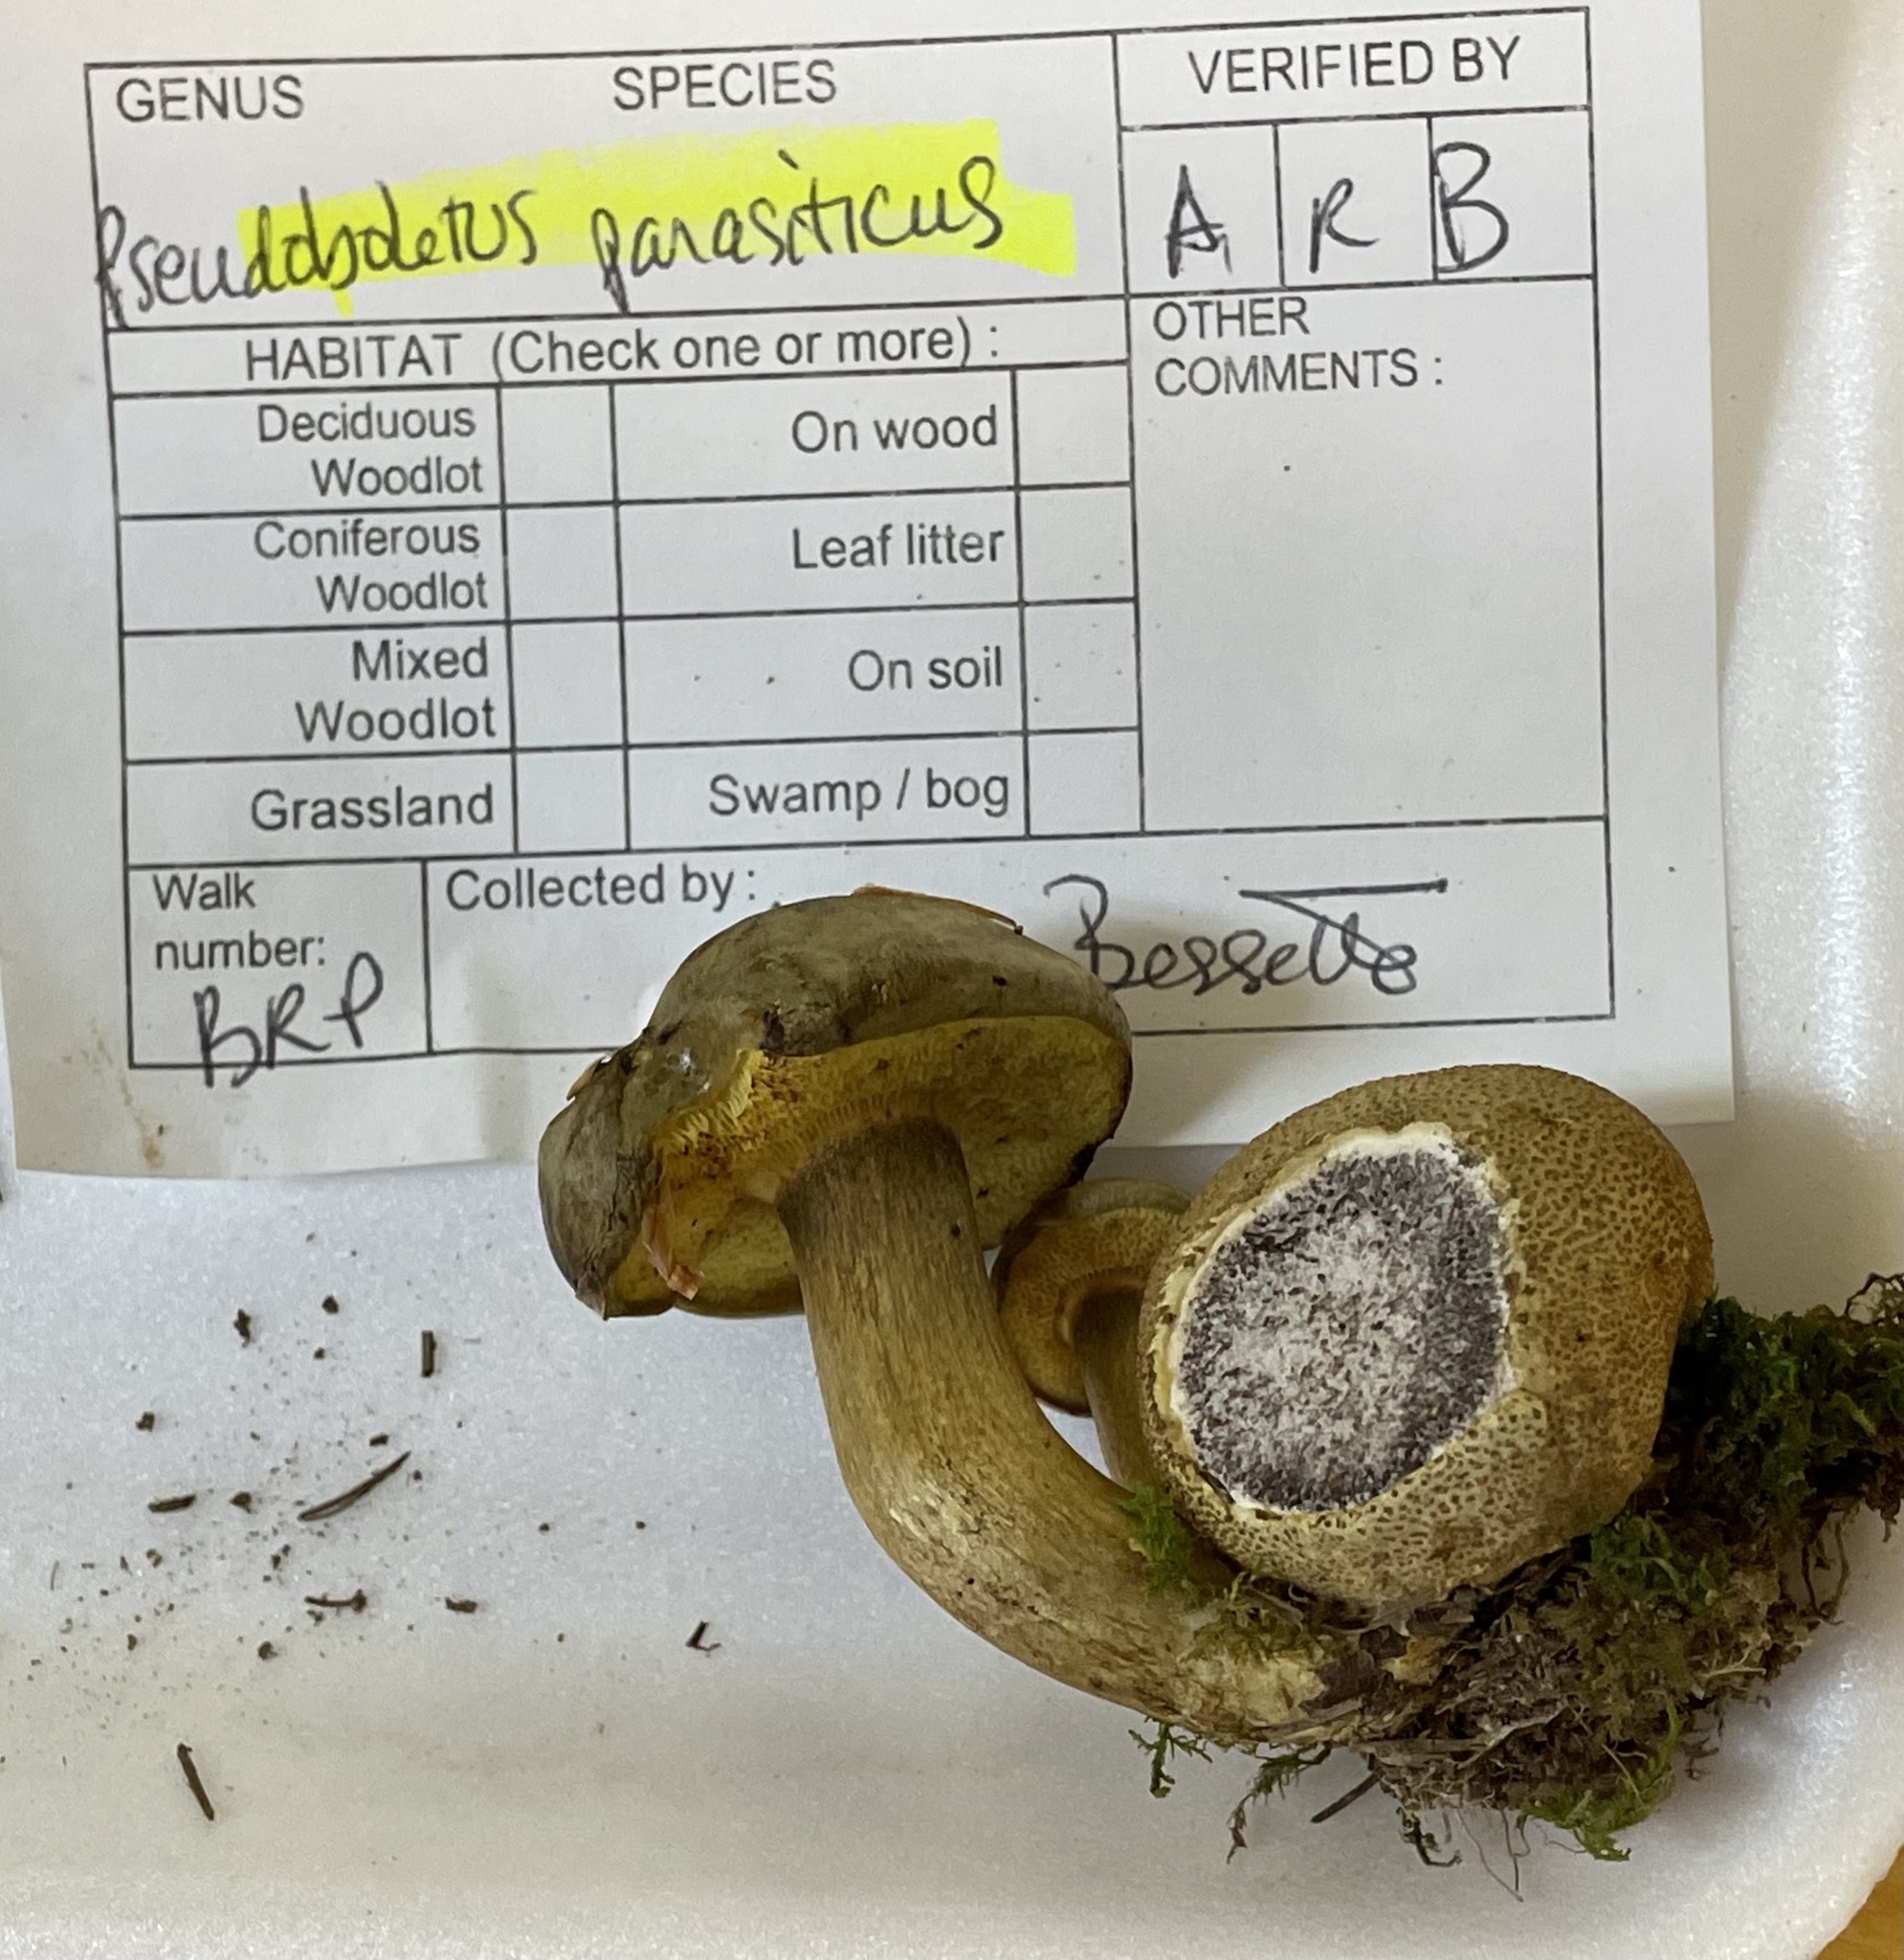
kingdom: Fungi
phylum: Basidiomycota
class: Agaricomycetes
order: Boletales
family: Boletaceae
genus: Pseudoboletus
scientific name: Pseudoboletus parasiticus
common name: Parasitic bolete
